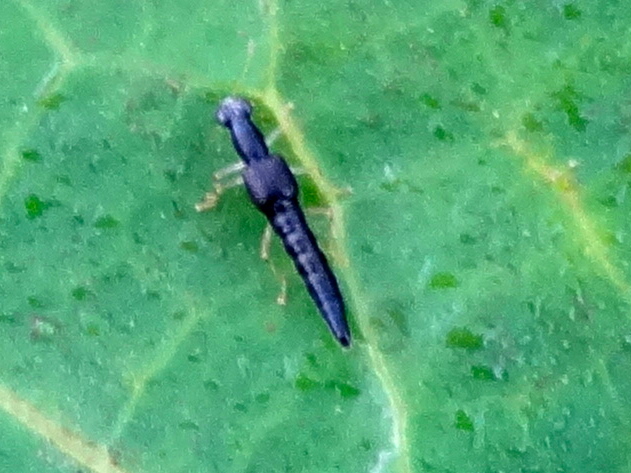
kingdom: Animalia
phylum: Arthropoda
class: Insecta
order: Coleoptera
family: Staphylinidae
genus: Stenus
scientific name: Stenus
